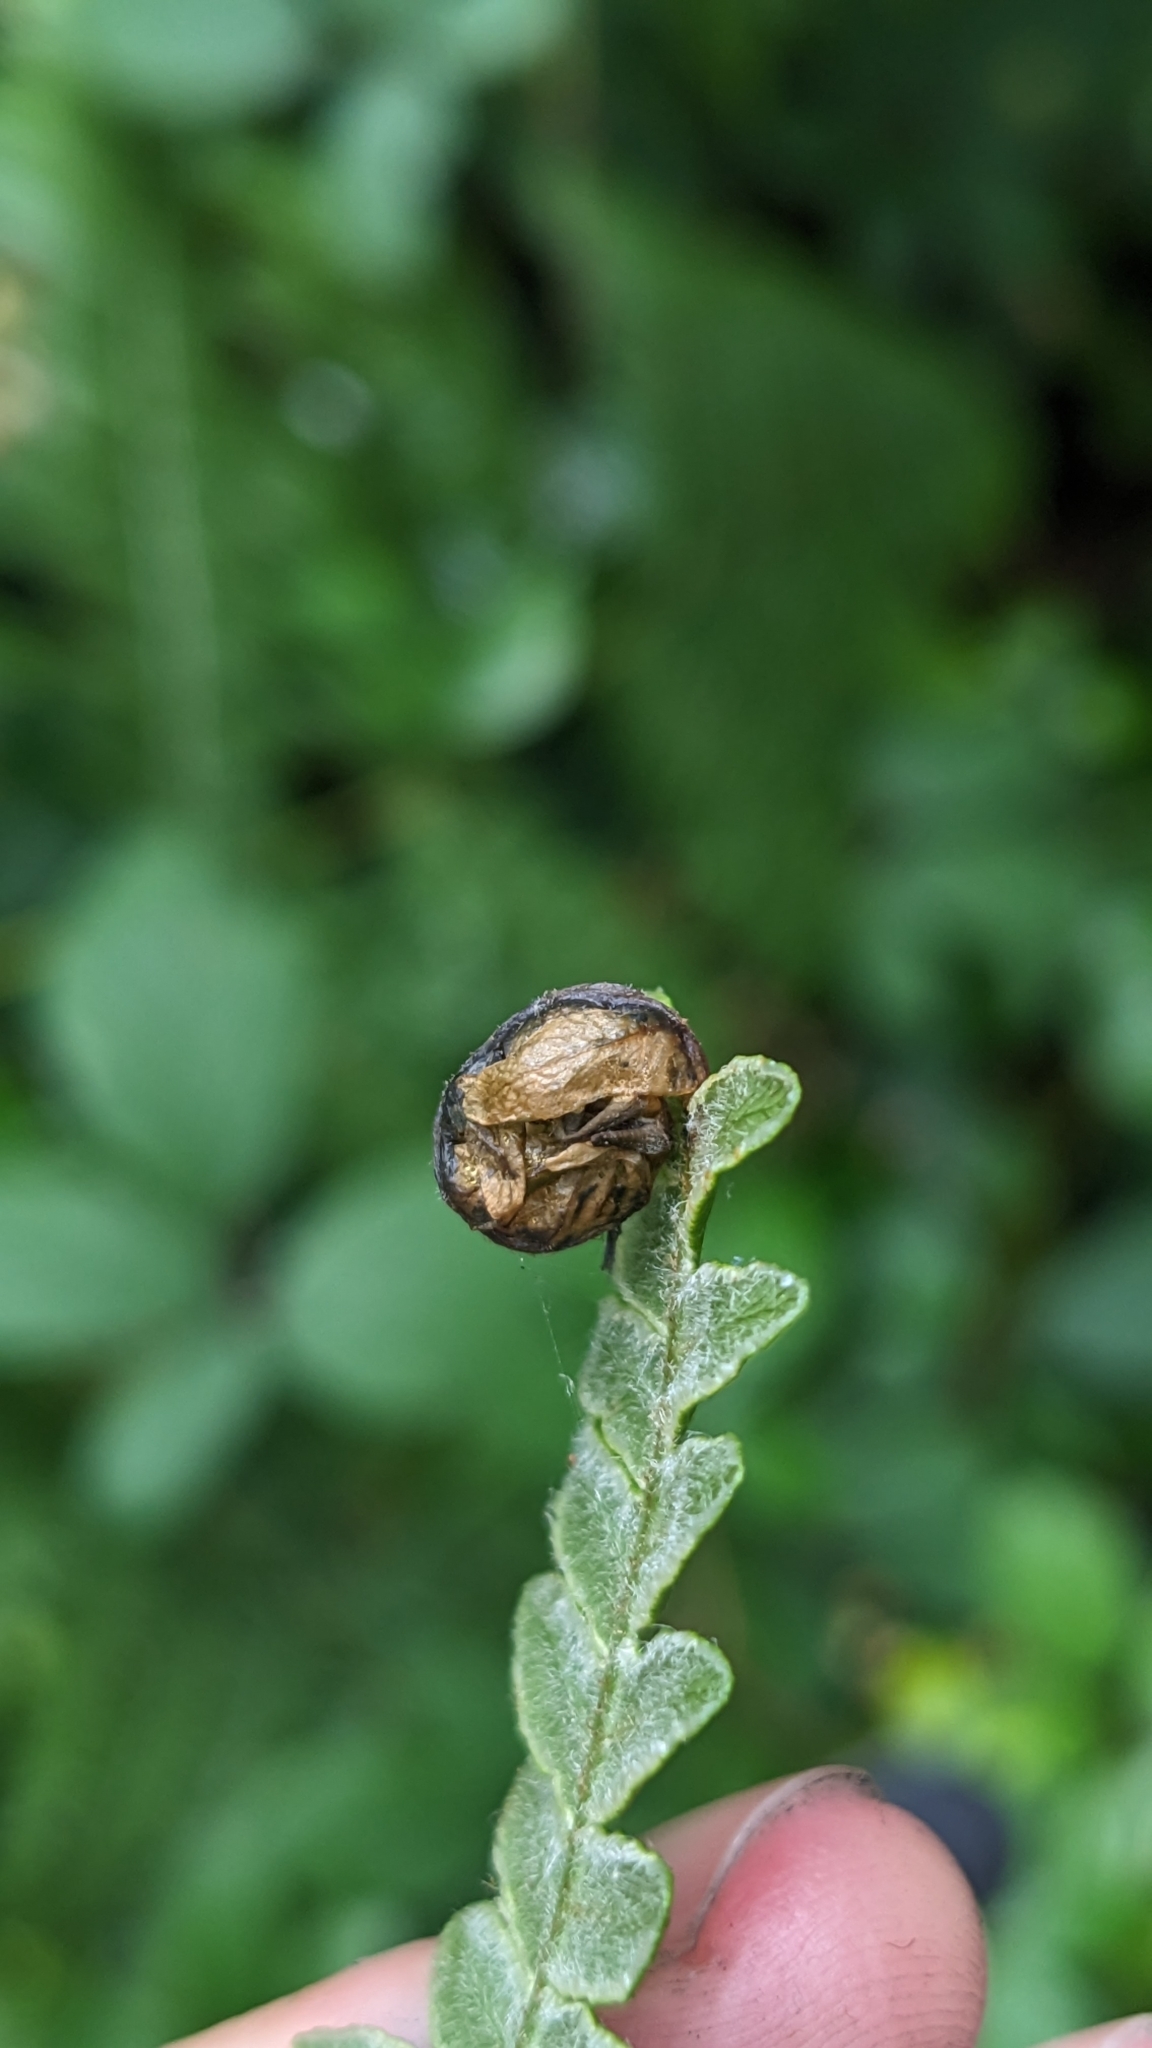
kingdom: Animalia
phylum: Arthropoda
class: Insecta
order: Diptera
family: Anthomyiidae
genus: Chirosia
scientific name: Chirosia grossicauda
